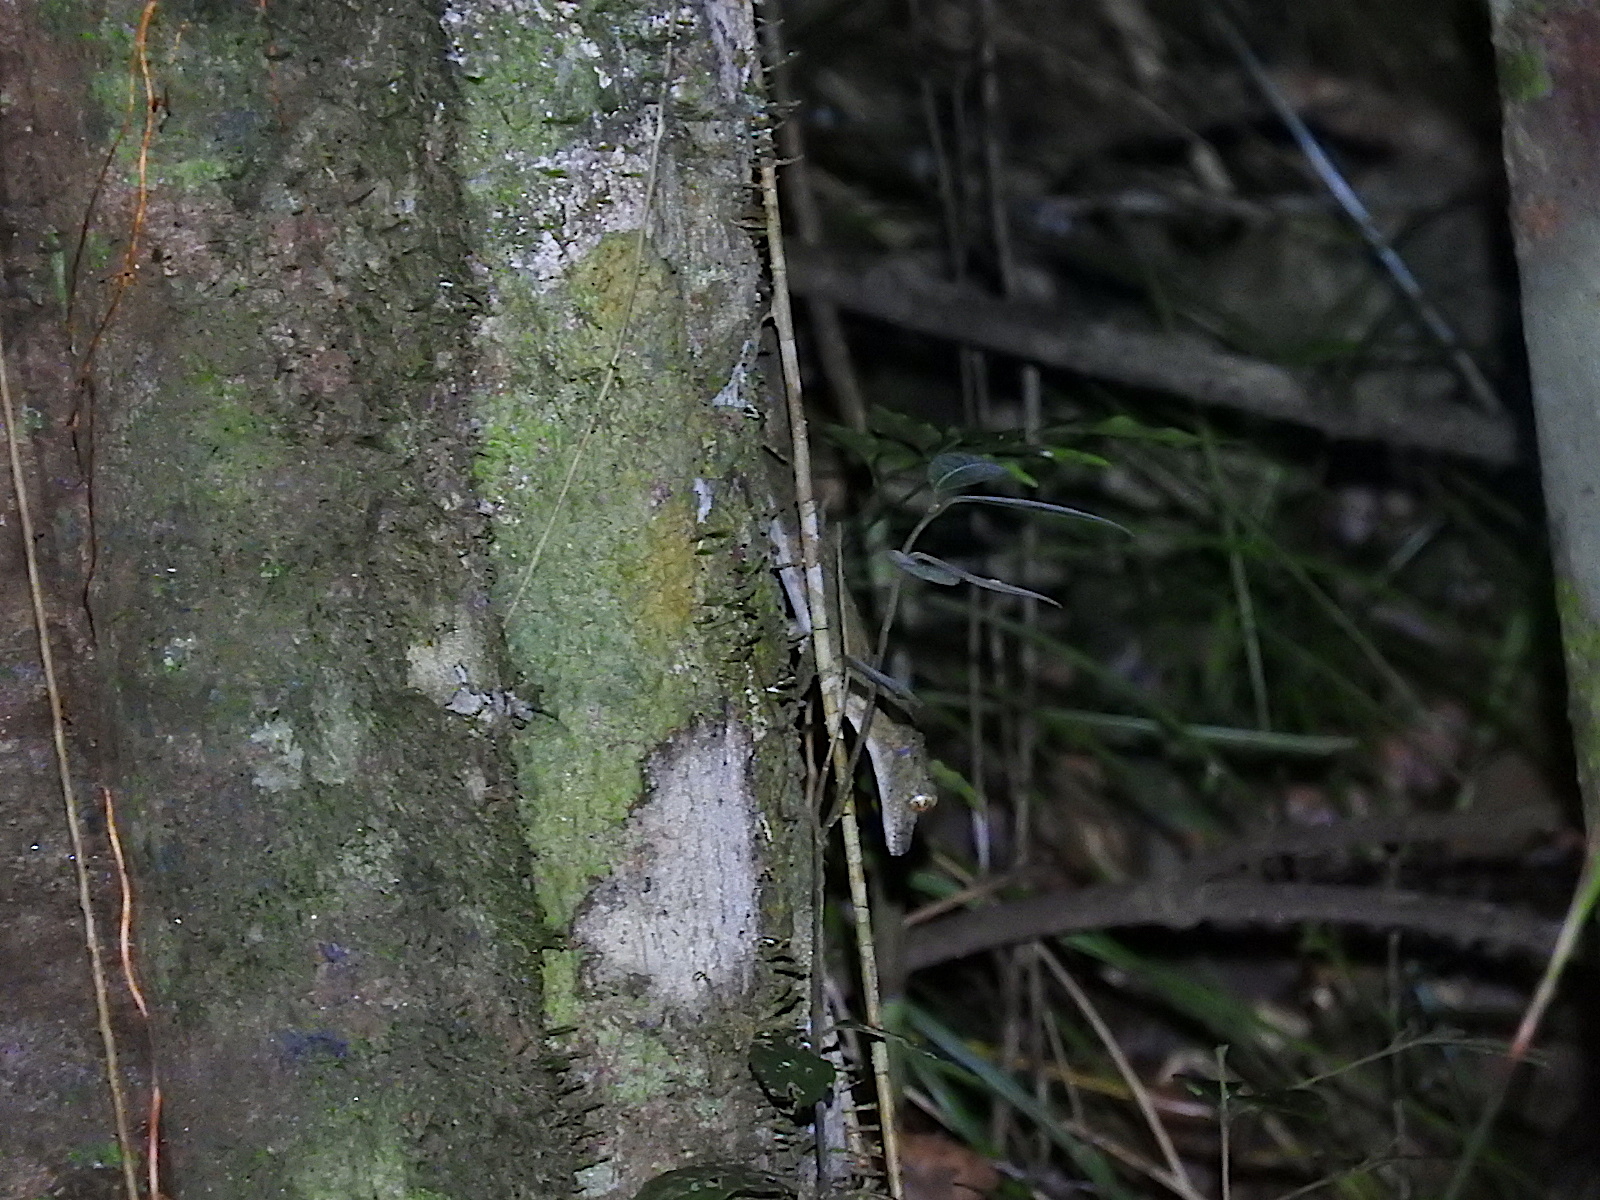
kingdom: Animalia
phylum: Chordata
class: Squamata
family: Carphodactylidae
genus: Saltuarius
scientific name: Saltuarius cornutus
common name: Leaf-tailed gecko
